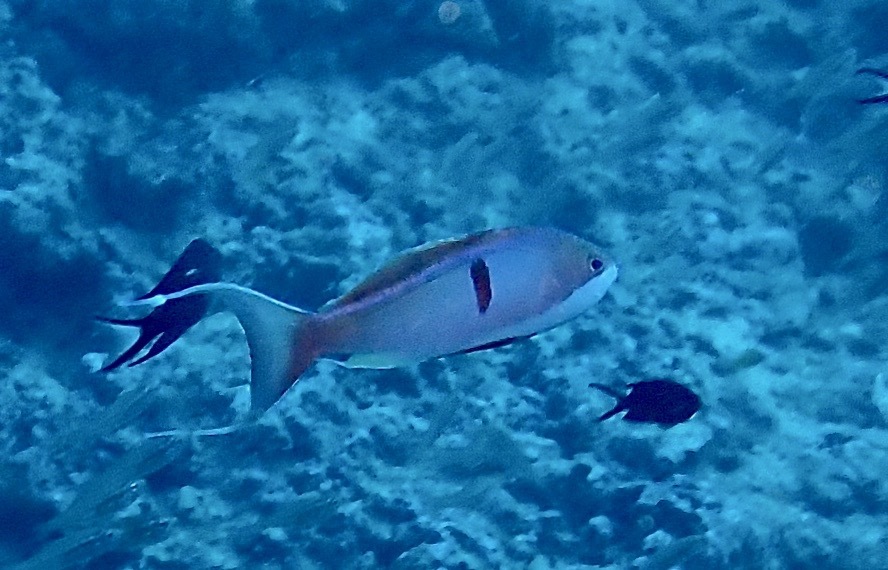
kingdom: Animalia
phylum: Chordata
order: Perciformes
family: Serranidae
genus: Pseudanthias
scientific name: Pseudanthias cooperi
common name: Red basslet
